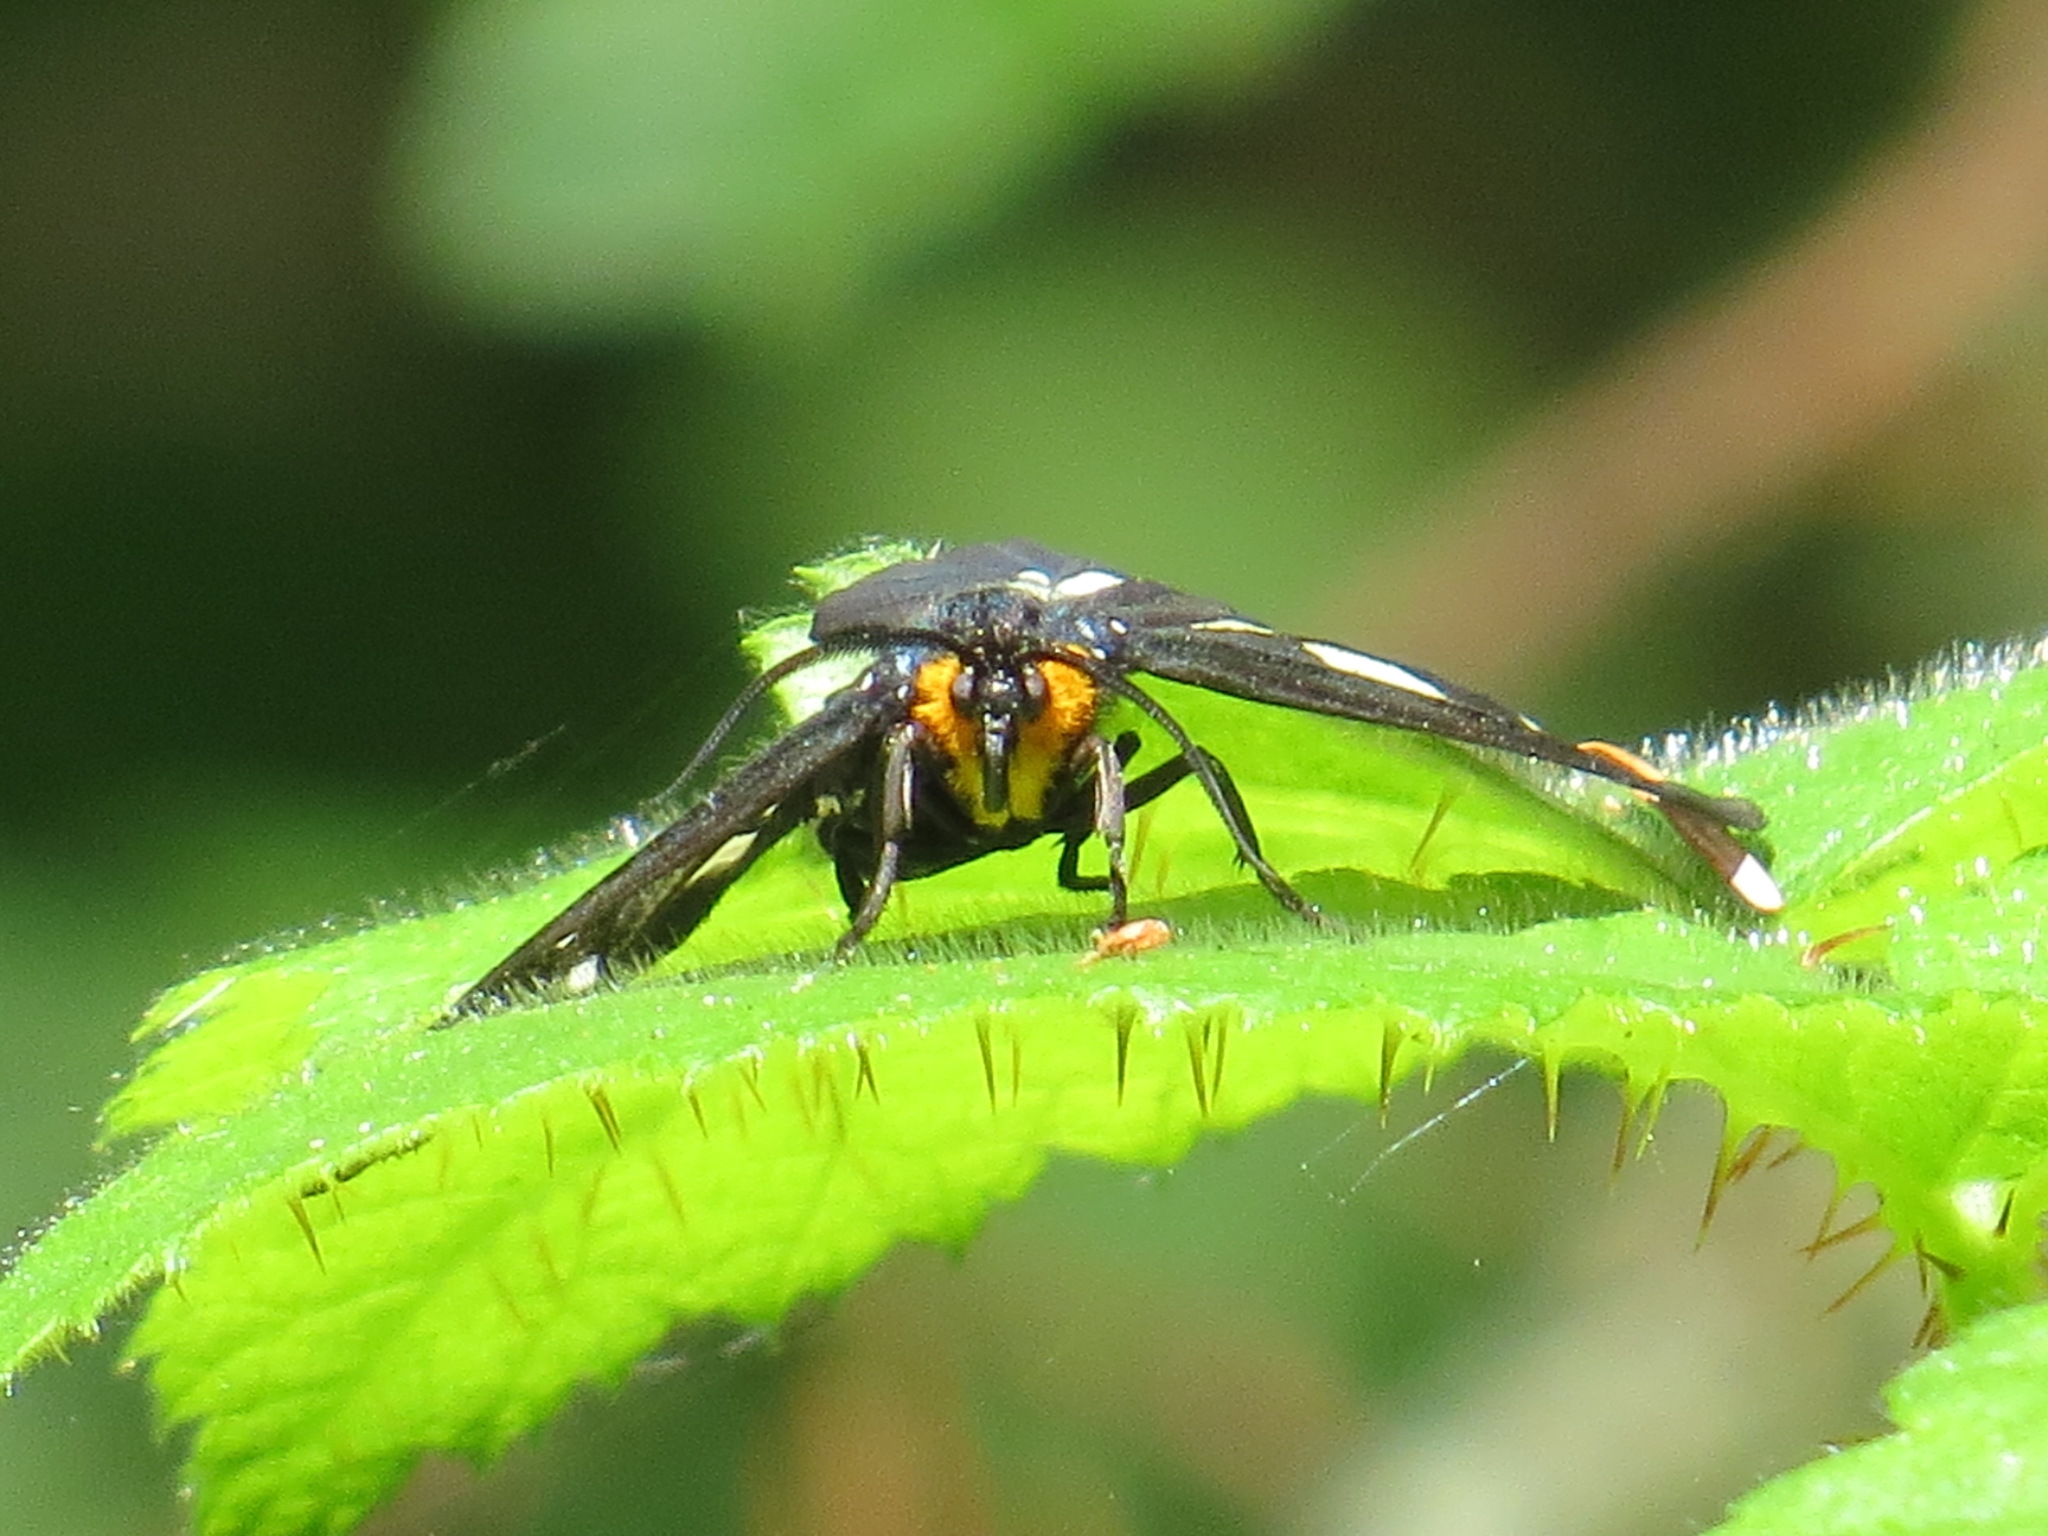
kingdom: Animalia
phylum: Arthropoda
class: Insecta
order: Lepidoptera
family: Erebidae
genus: Gnophaela
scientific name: Gnophaela latipennis
